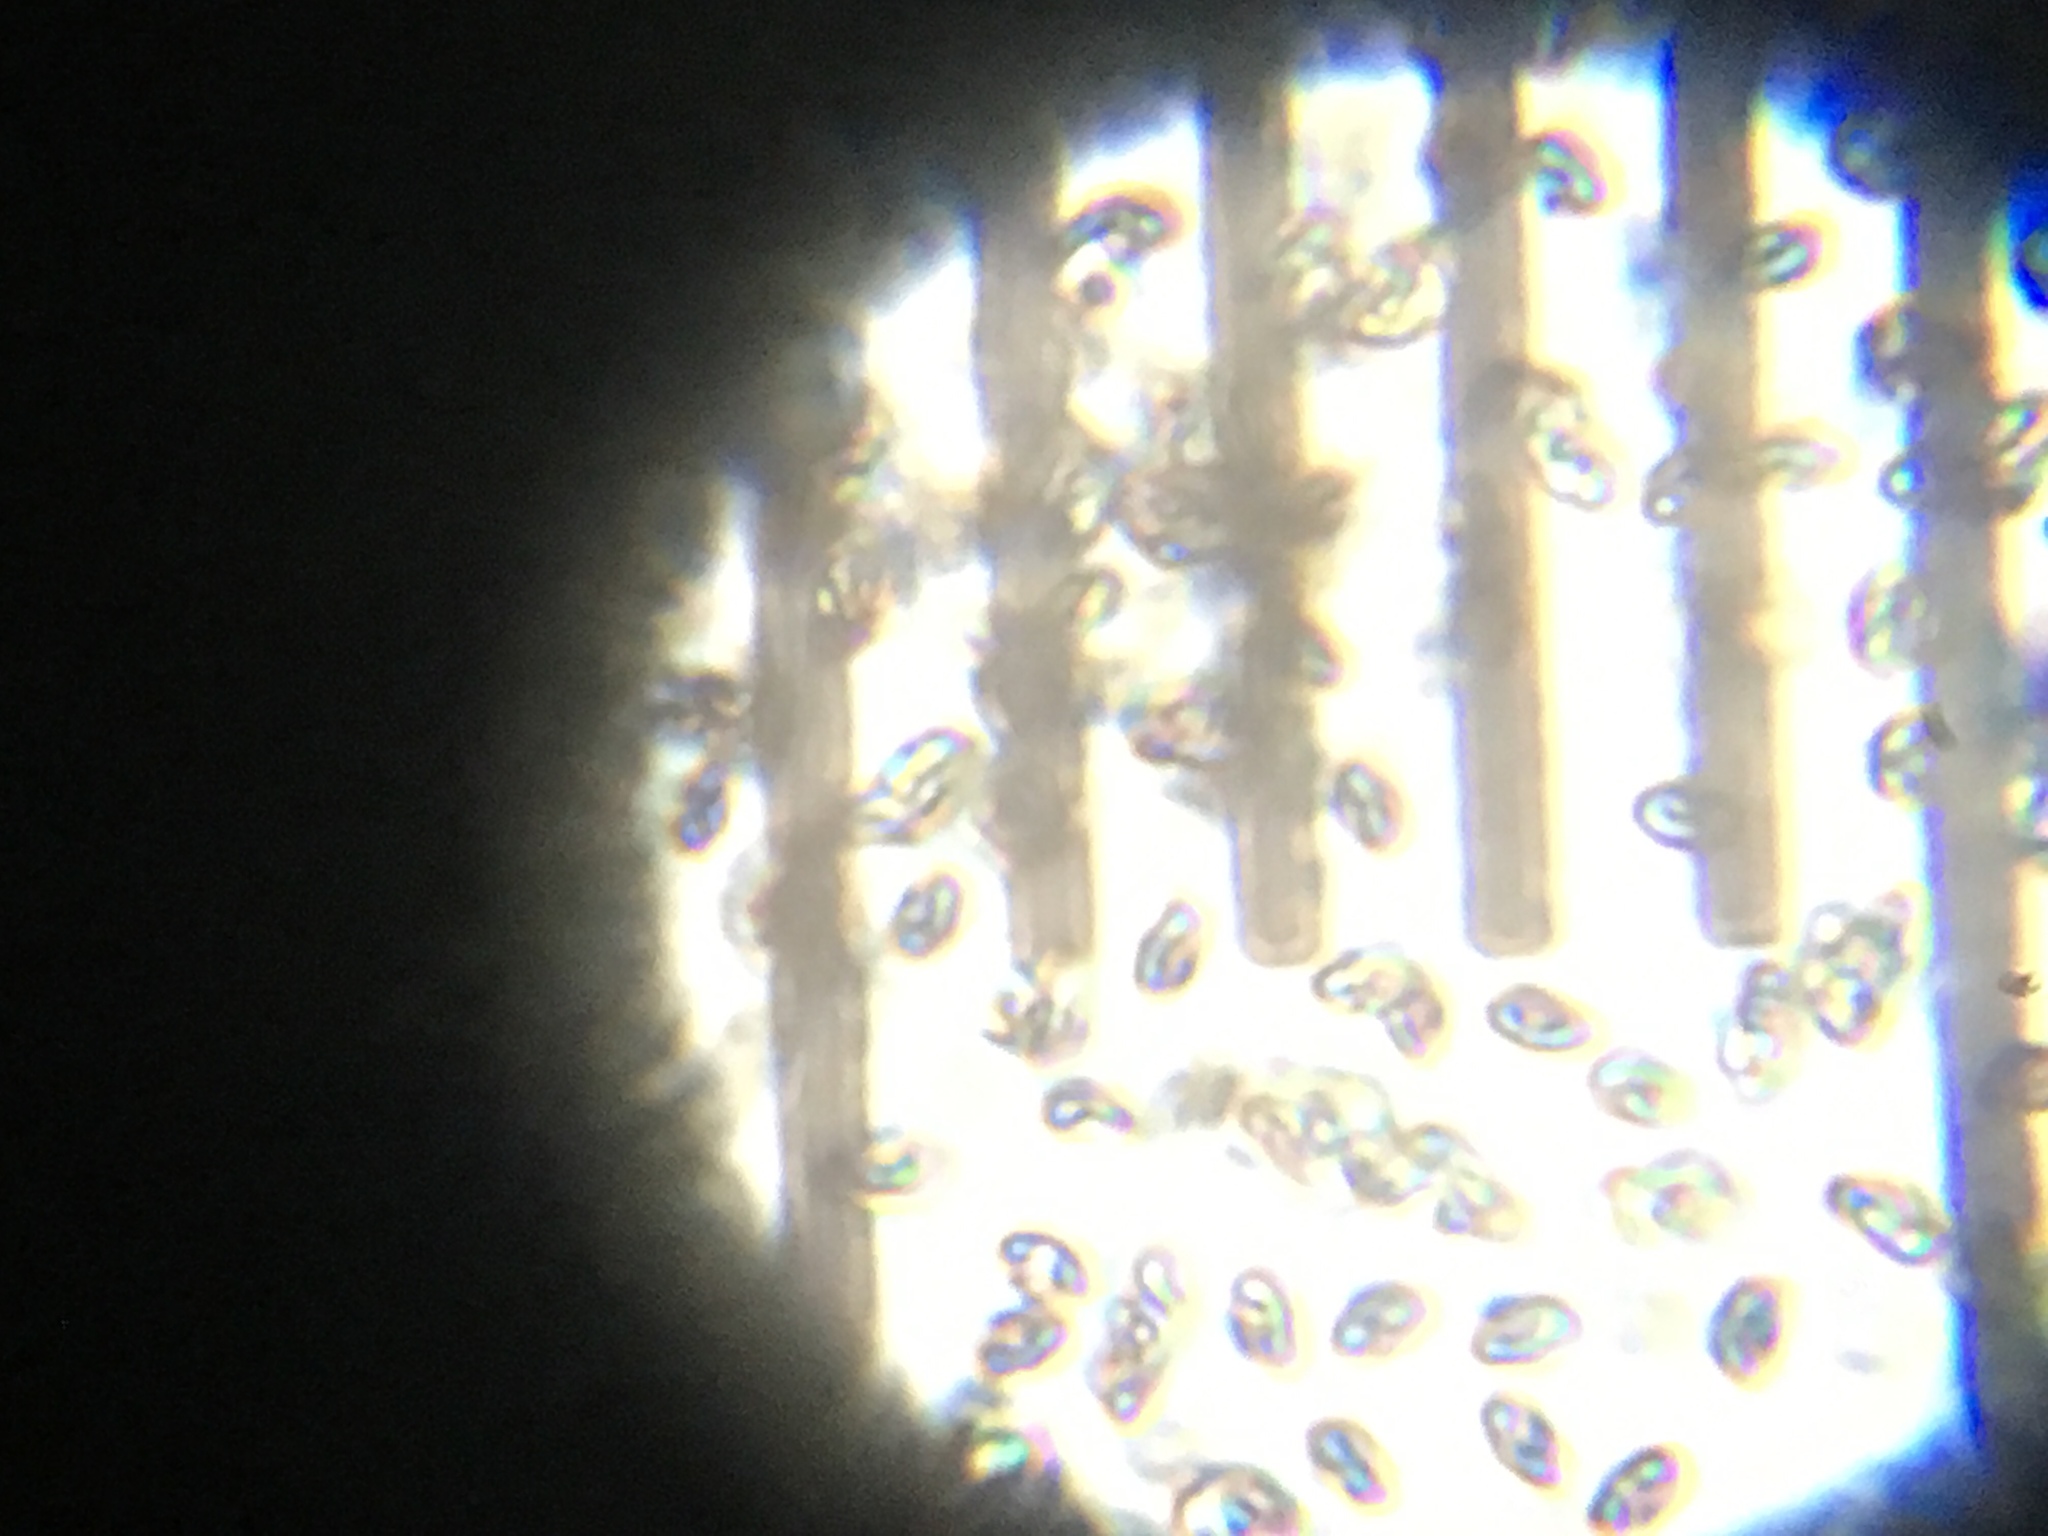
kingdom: Fungi
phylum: Basidiomycota
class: Agaricomycetes
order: Polyporales
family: Panaceae
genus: Panus
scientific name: Panus purpuratus
